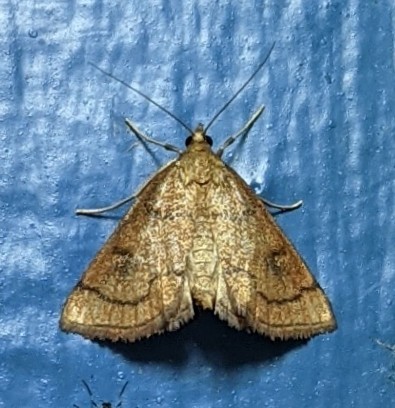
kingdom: Animalia
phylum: Arthropoda
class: Insecta
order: Lepidoptera
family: Crambidae
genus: Fumibotys
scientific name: Fumibotys fumalis
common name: Mint root borer moth
